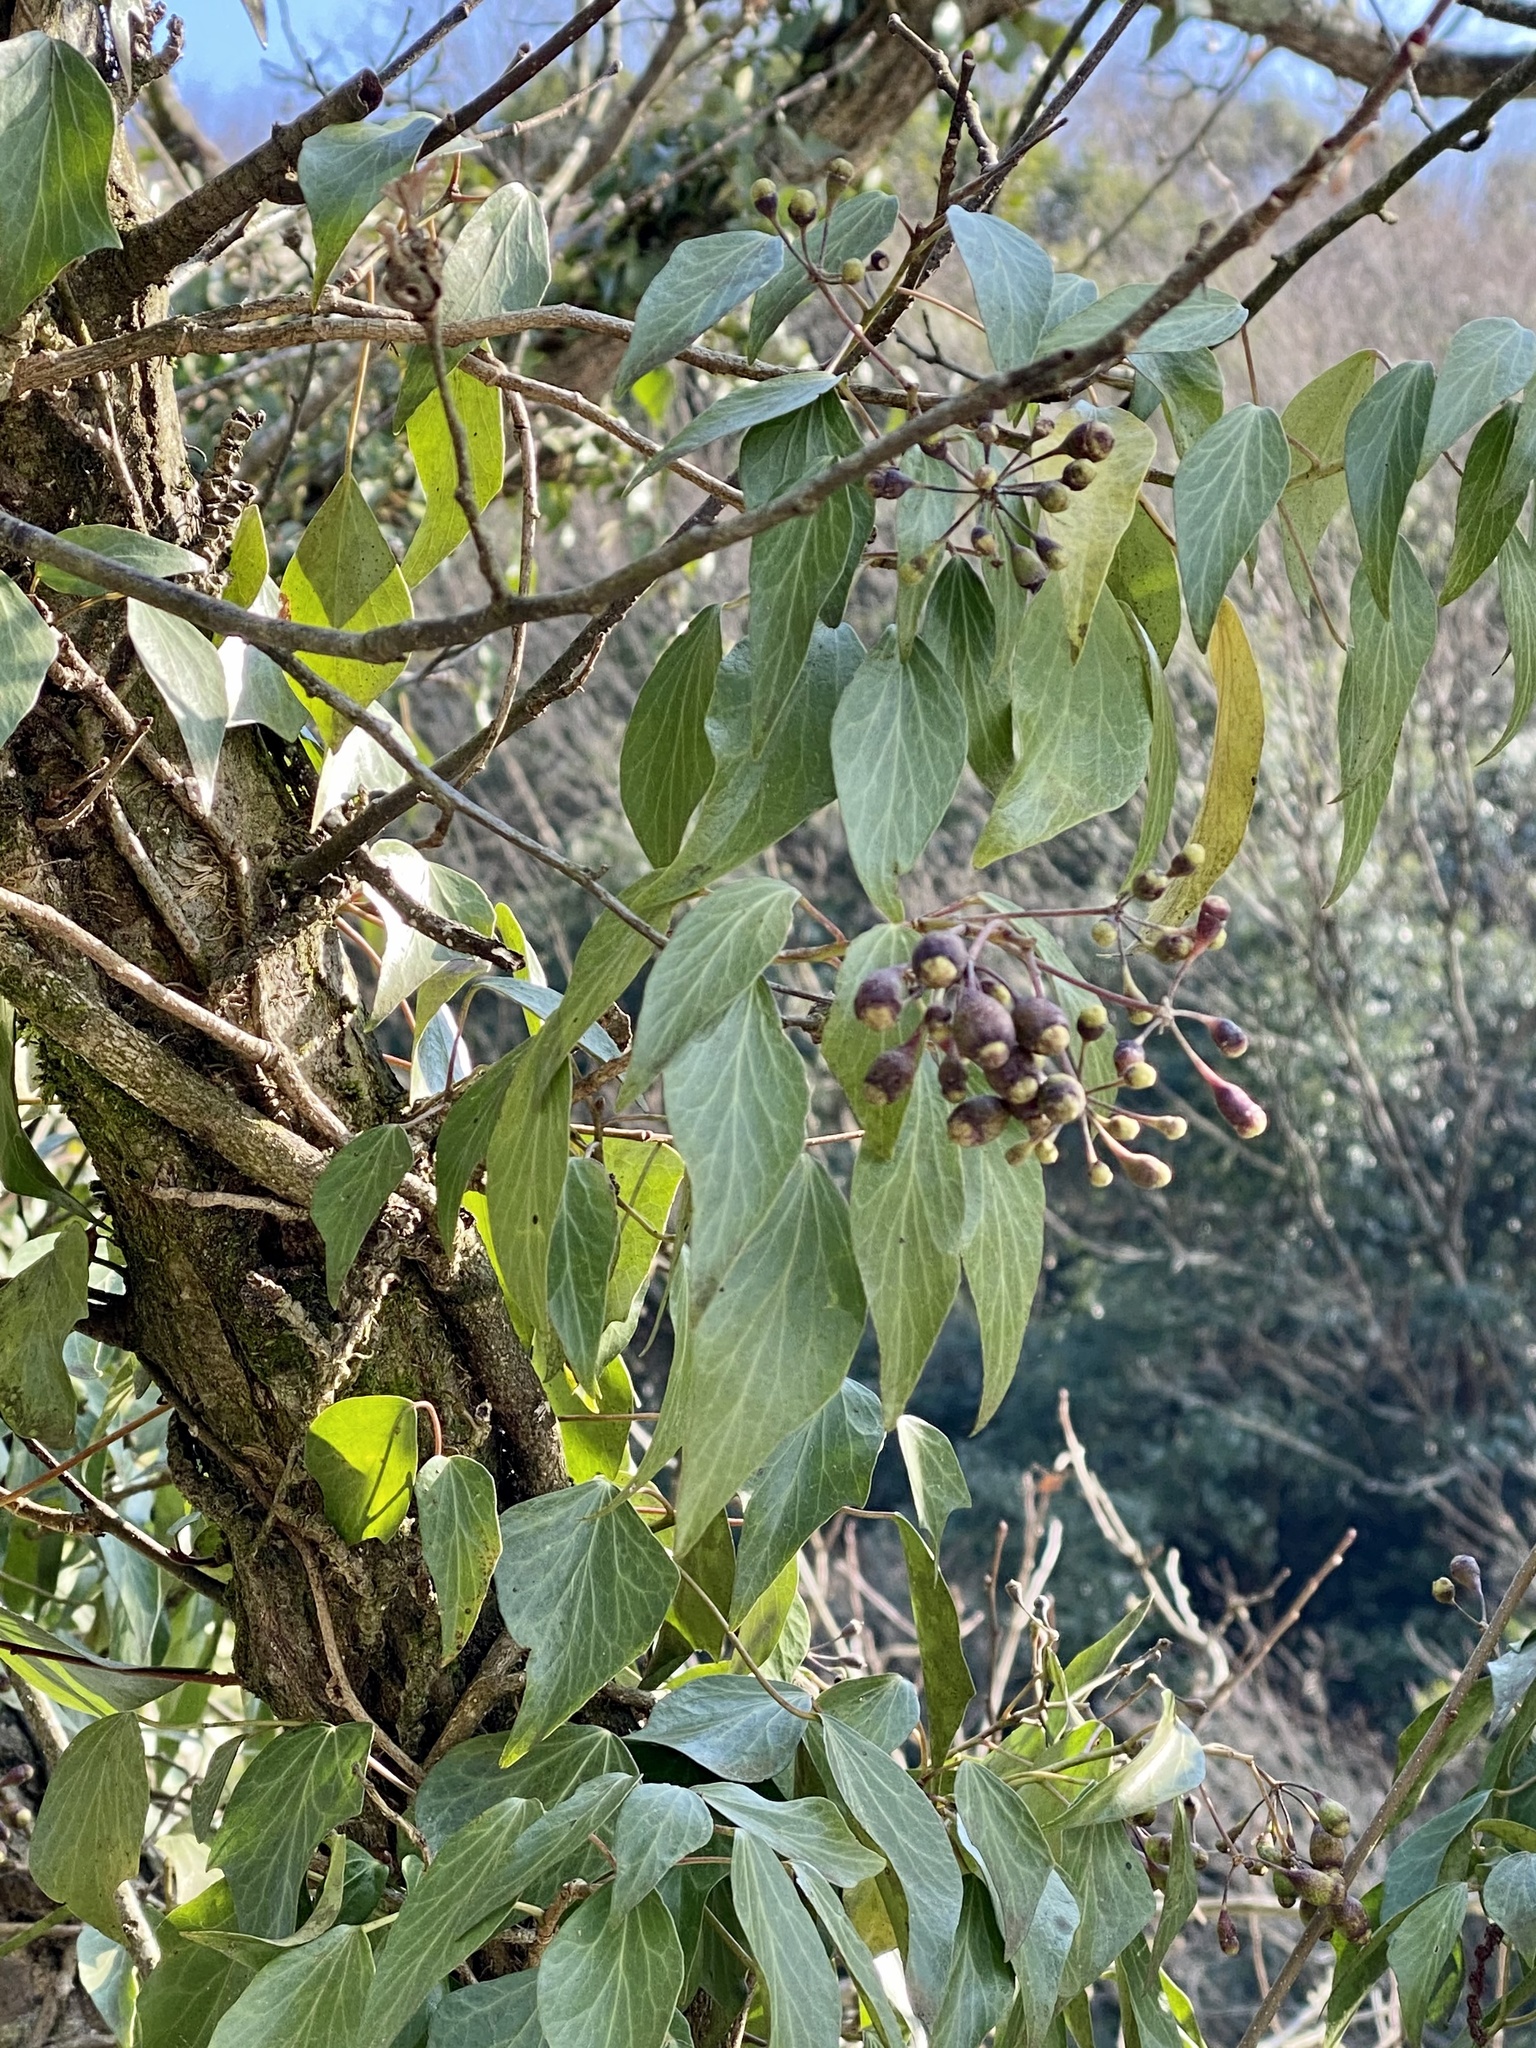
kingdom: Plantae
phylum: Tracheophyta
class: Magnoliopsida
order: Apiales
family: Araliaceae
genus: Hedera
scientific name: Hedera rhombea
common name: Japanese ivy
